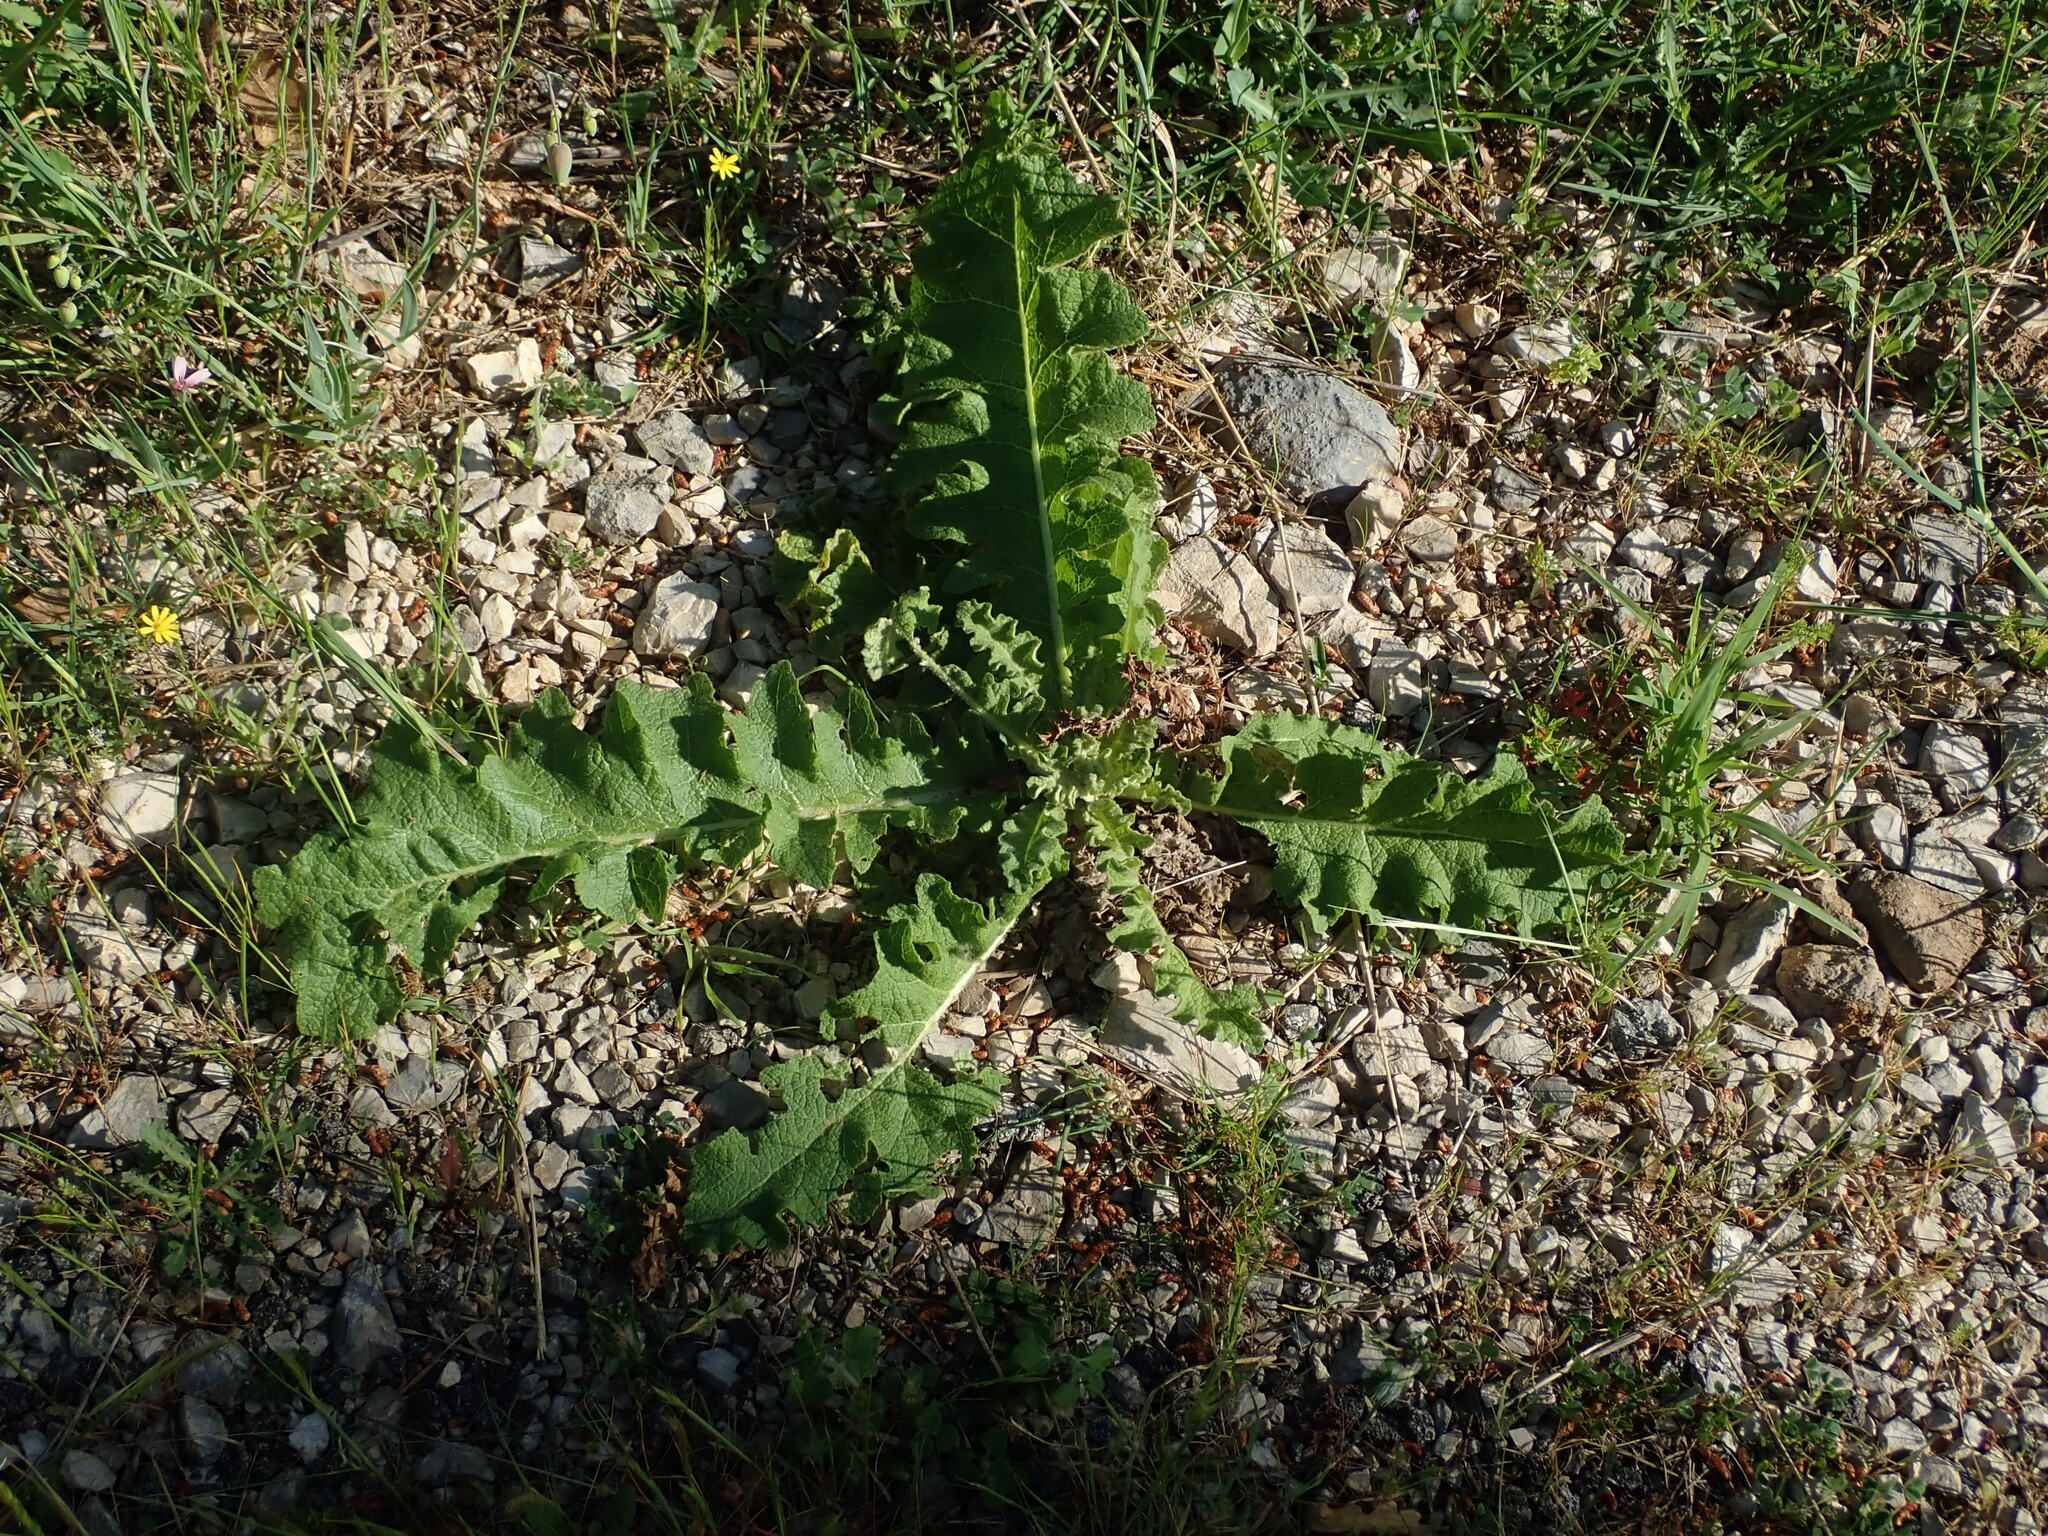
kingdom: Plantae
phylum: Tracheophyta
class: Magnoliopsida
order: Lamiales
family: Scrophulariaceae
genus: Verbascum
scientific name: Verbascum sinuatum
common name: Wavyleaf mullein
